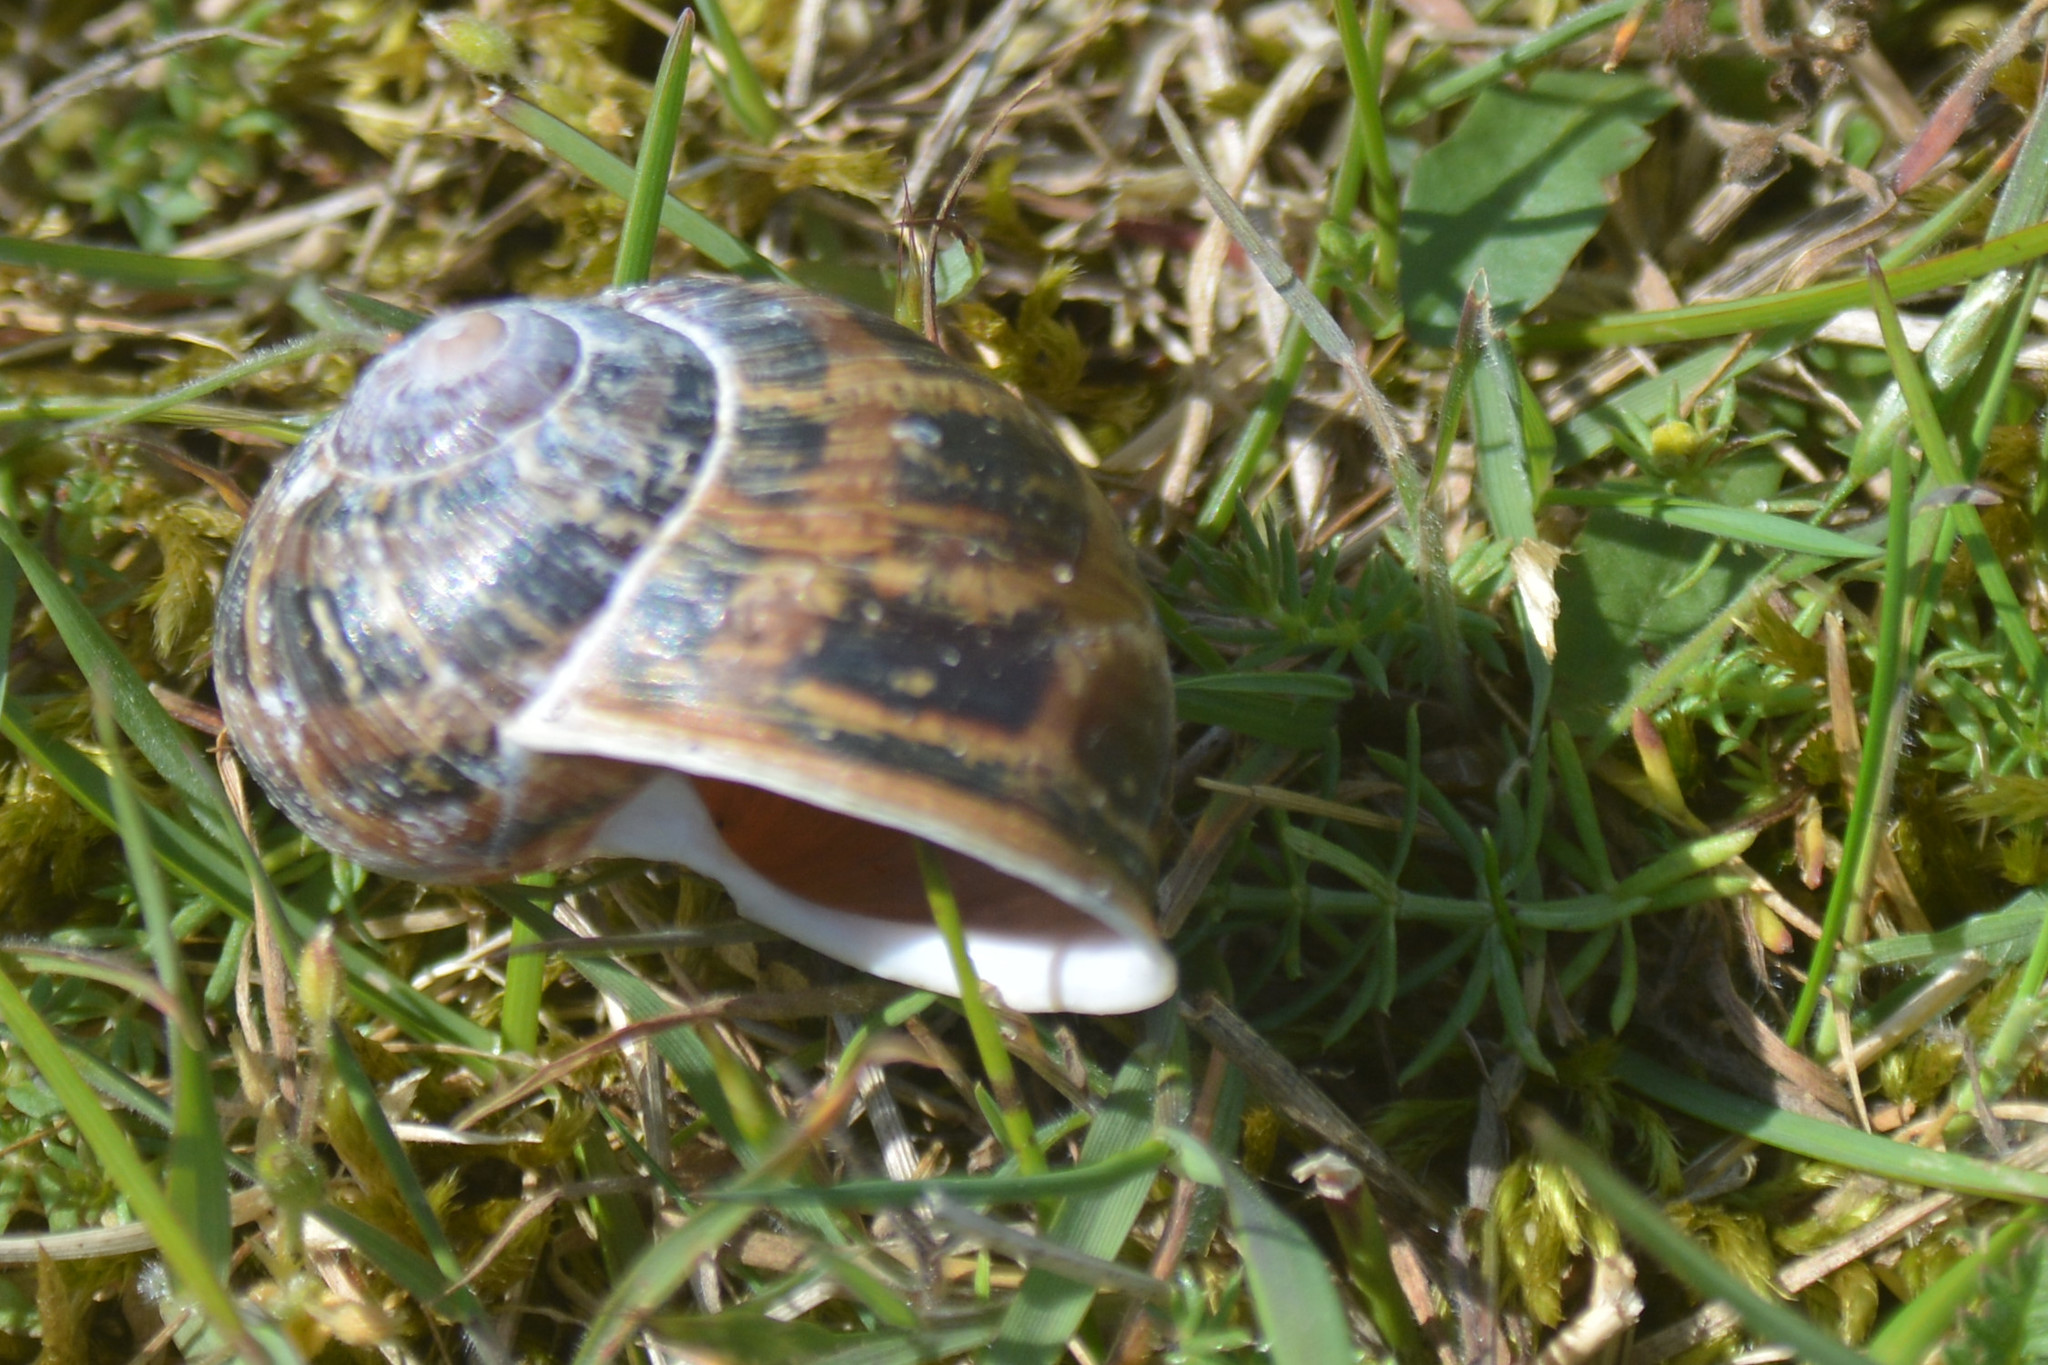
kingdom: Animalia
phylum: Mollusca
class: Gastropoda
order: Stylommatophora
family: Helicidae
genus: Cornu
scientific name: Cornu aspersum
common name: Brown garden snail
